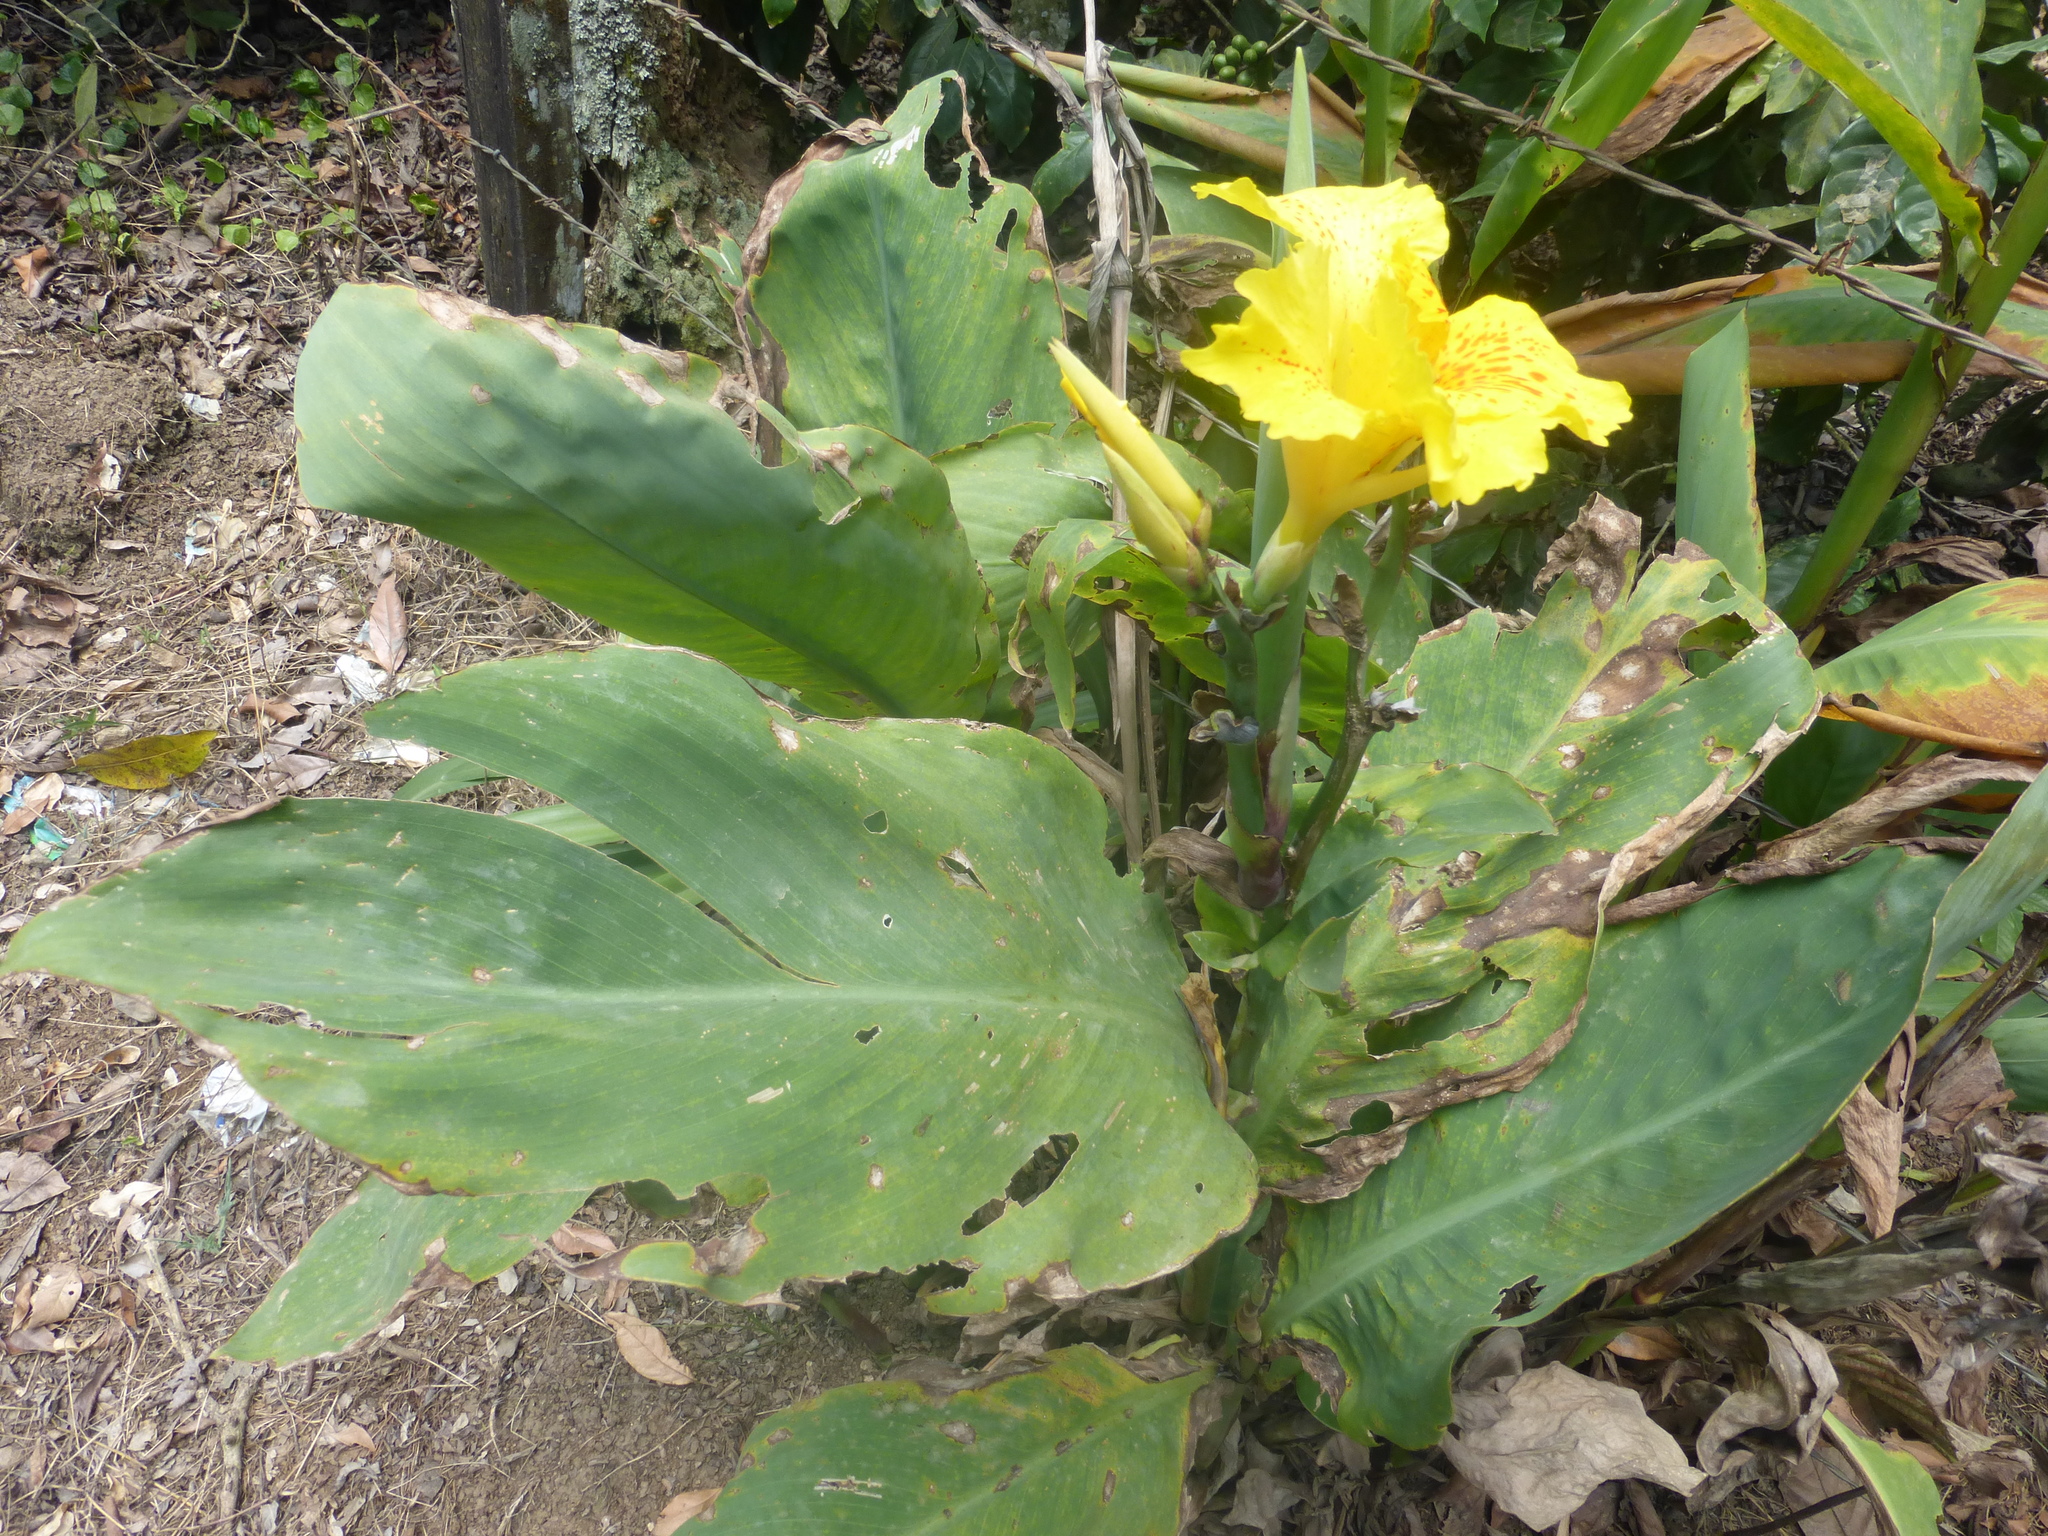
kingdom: Plantae
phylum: Tracheophyta
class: Liliopsida
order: Zingiberales
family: Cannaceae
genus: Canna
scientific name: Canna hybrida
